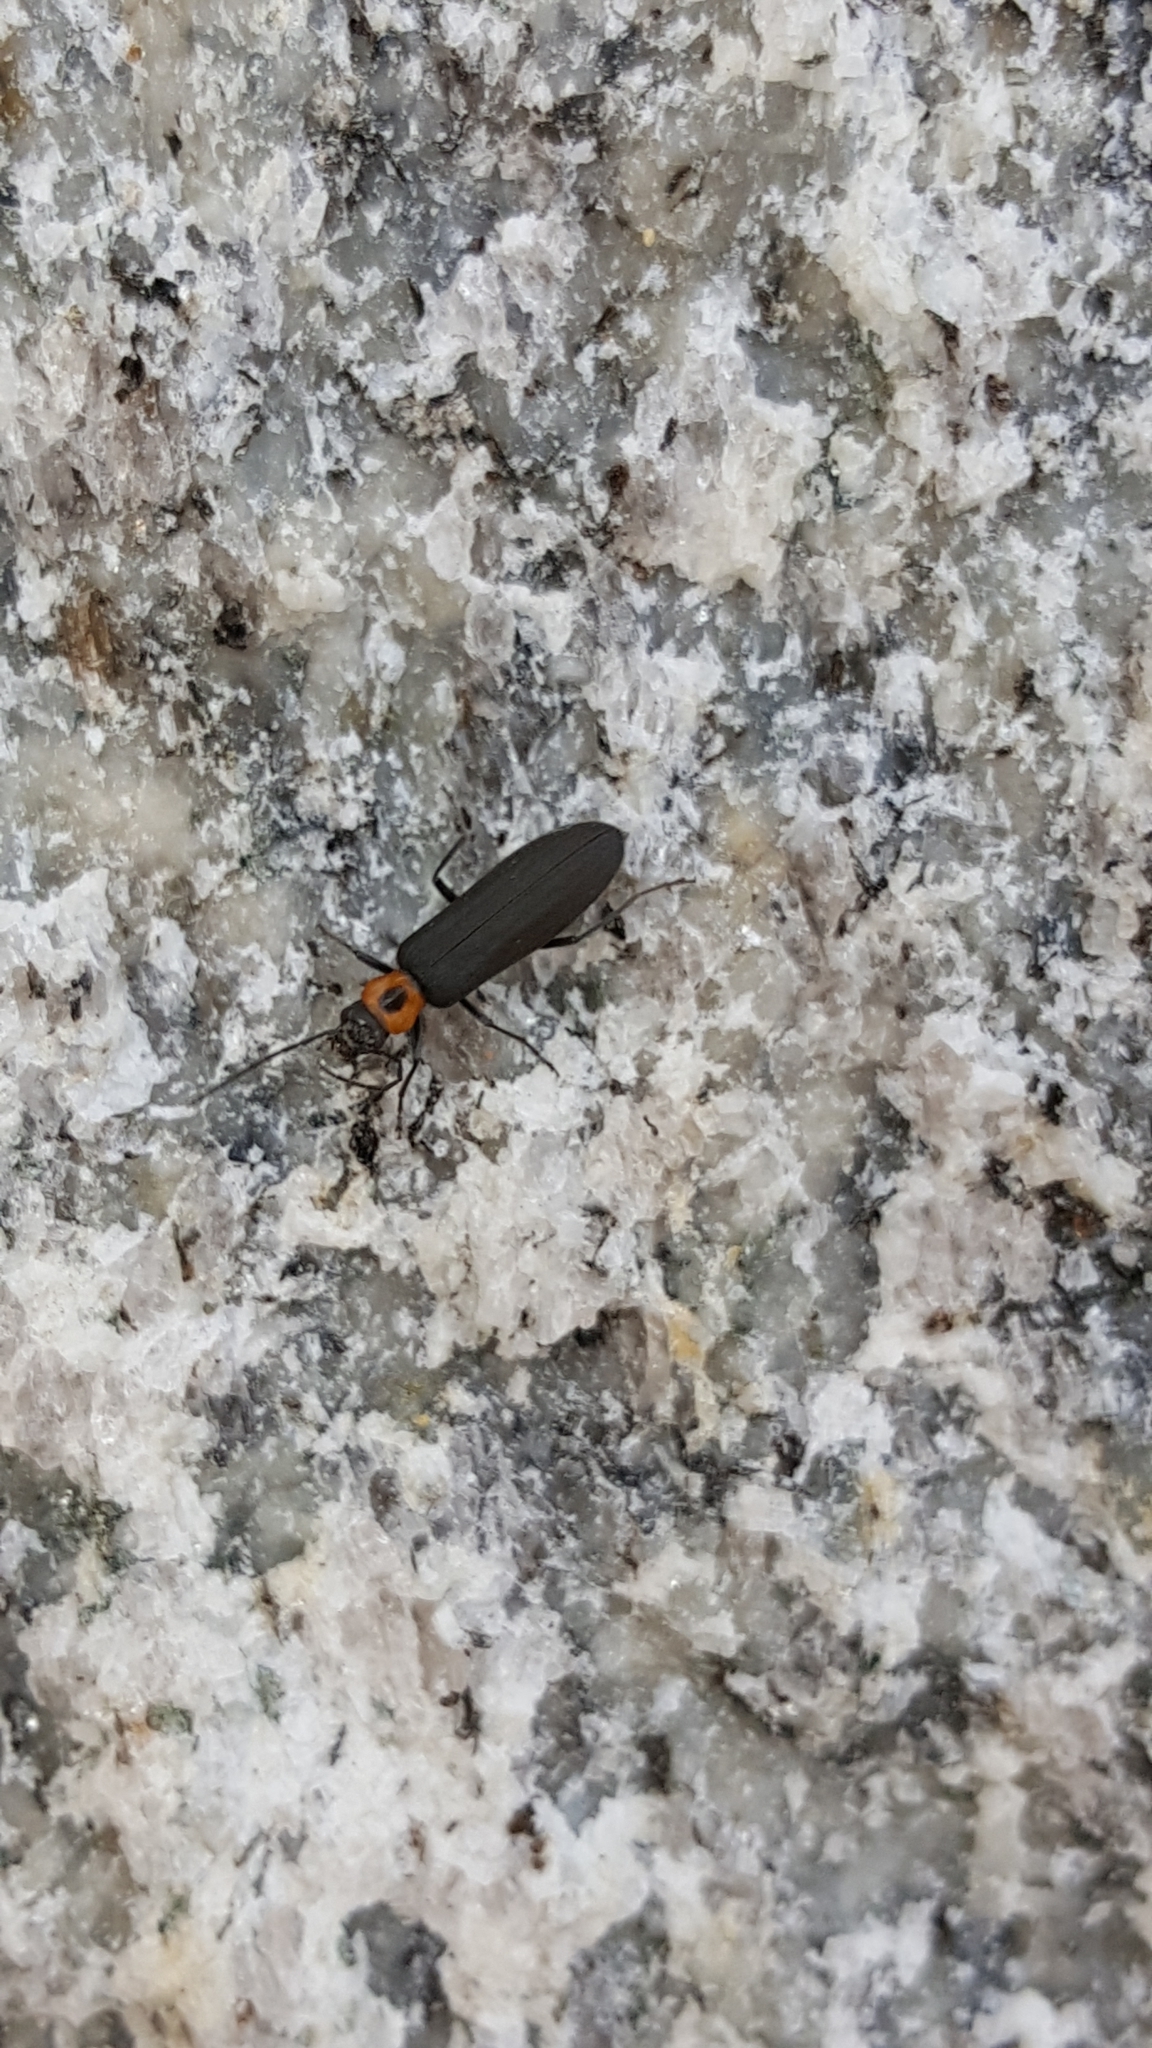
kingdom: Animalia
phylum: Arthropoda
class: Insecta
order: Coleoptera
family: Oedemeridae
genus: Ischnomera
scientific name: Ischnomera
